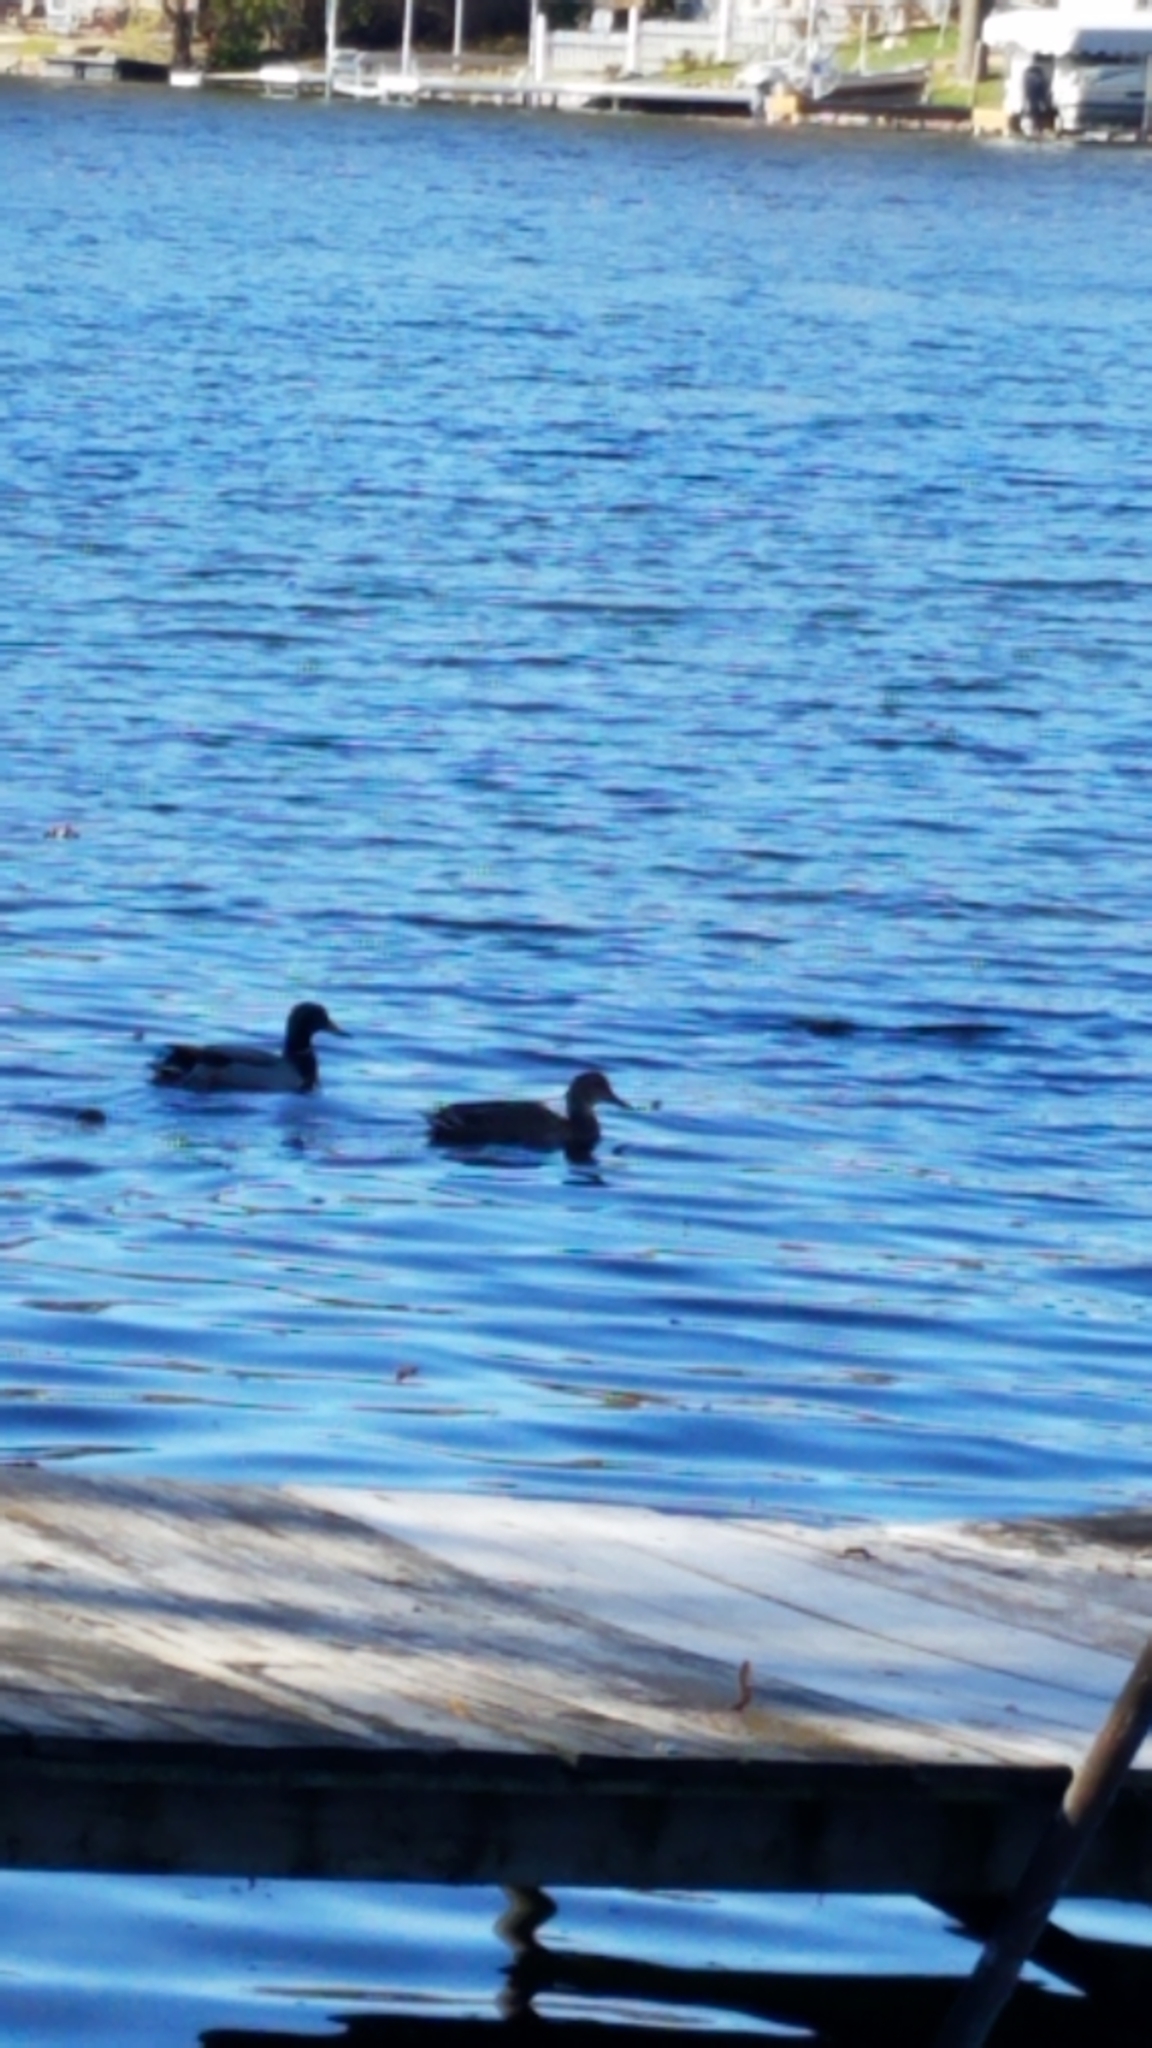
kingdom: Animalia
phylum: Chordata
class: Aves
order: Anseriformes
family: Anatidae
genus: Anas
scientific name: Anas platyrhynchos
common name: Mallard
